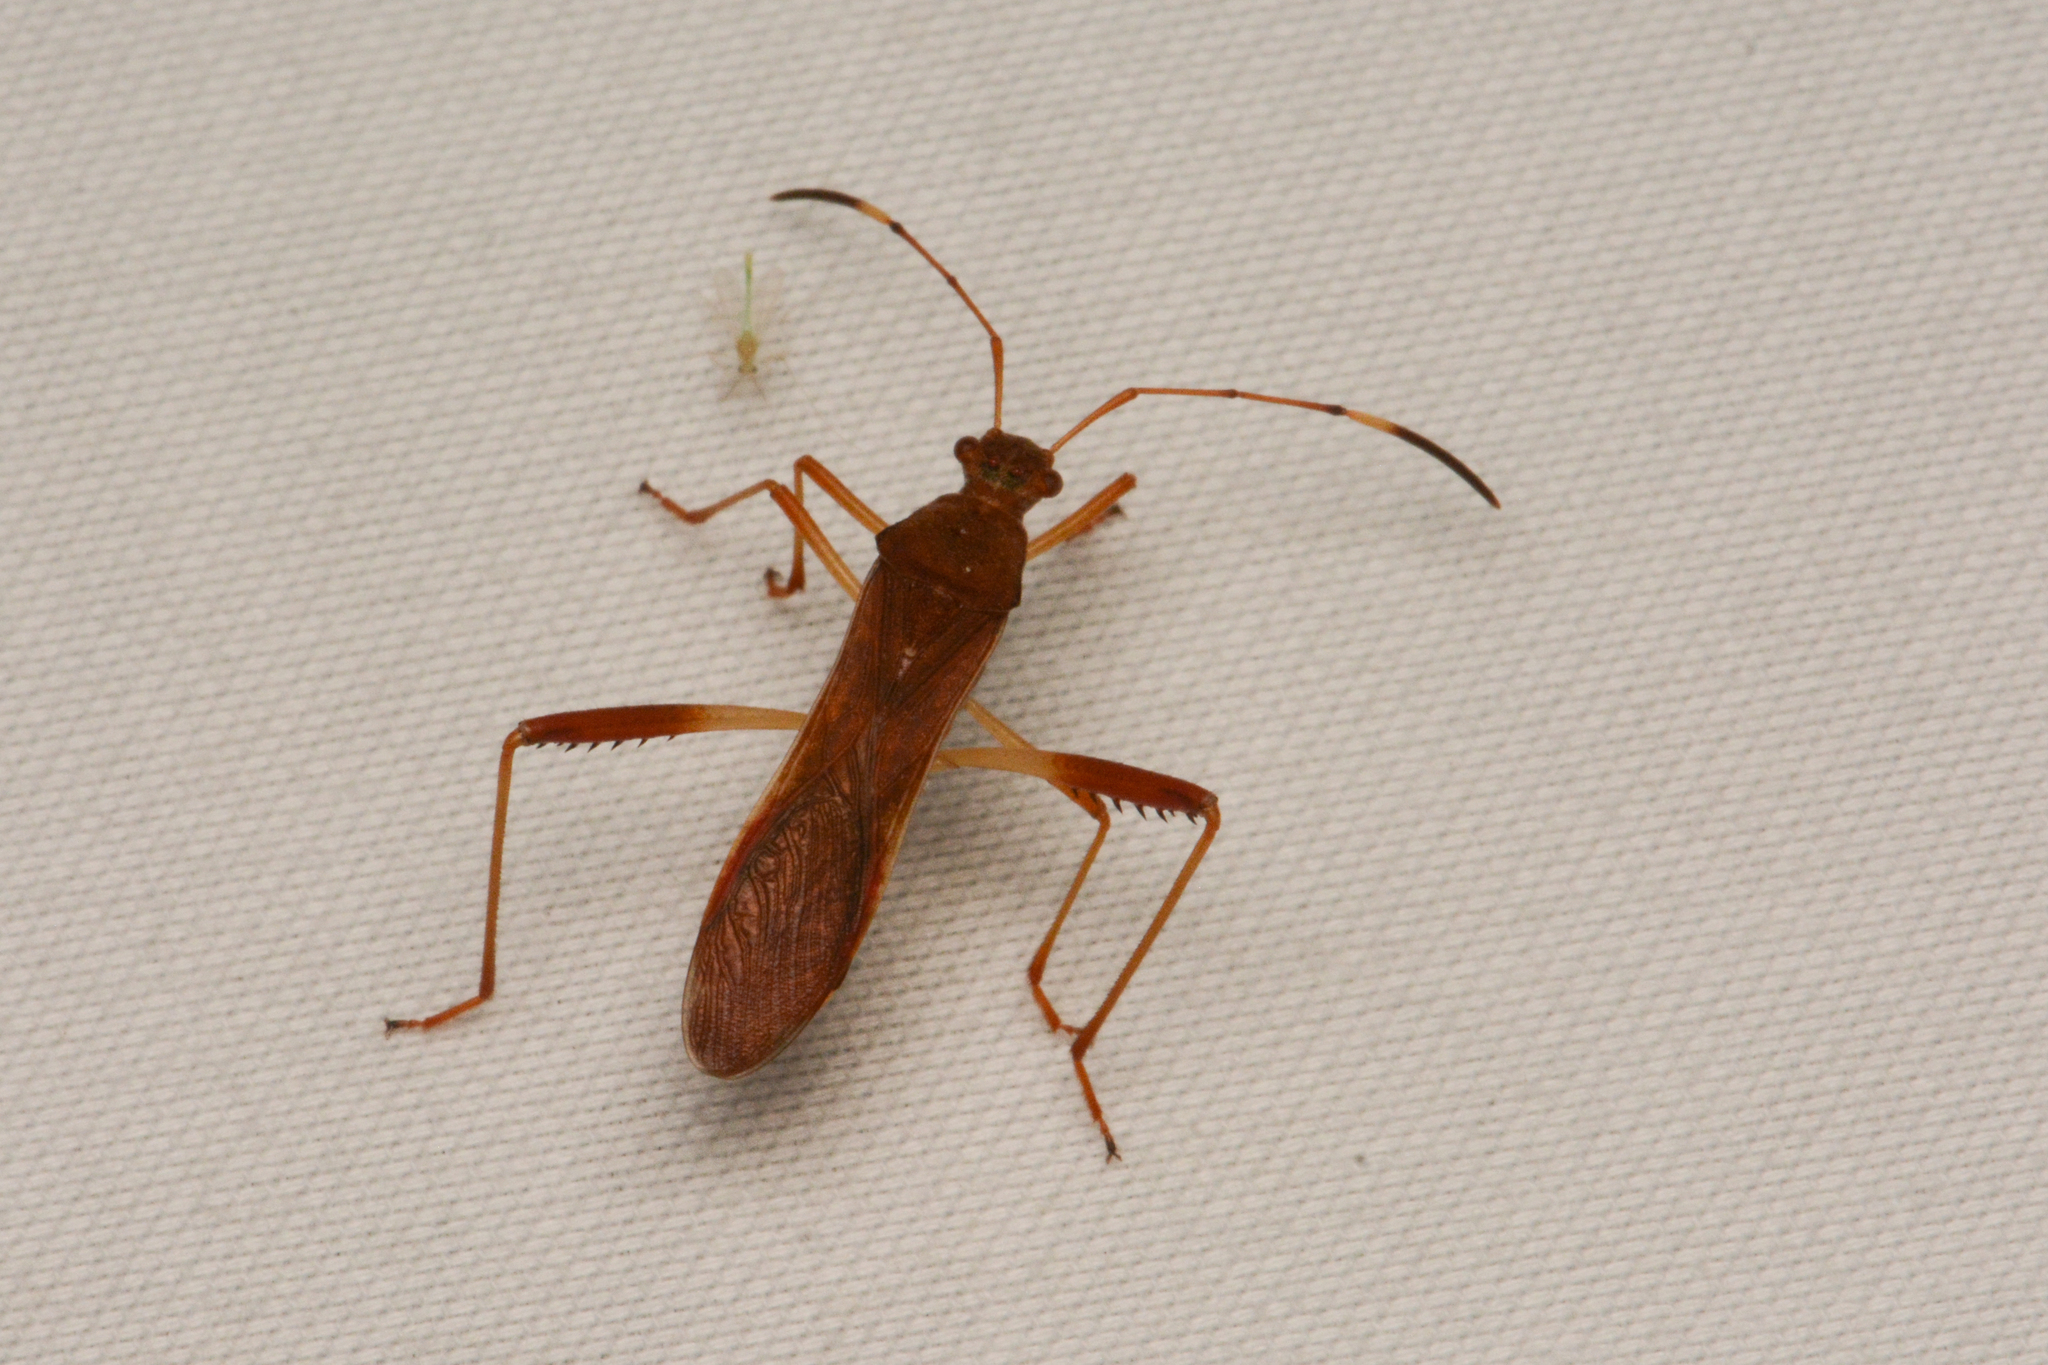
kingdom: Animalia
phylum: Arthropoda
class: Insecta
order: Hemiptera
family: Alydidae
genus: Megalotomus
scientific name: Megalotomus quinquespinosus
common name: Lupine bug
